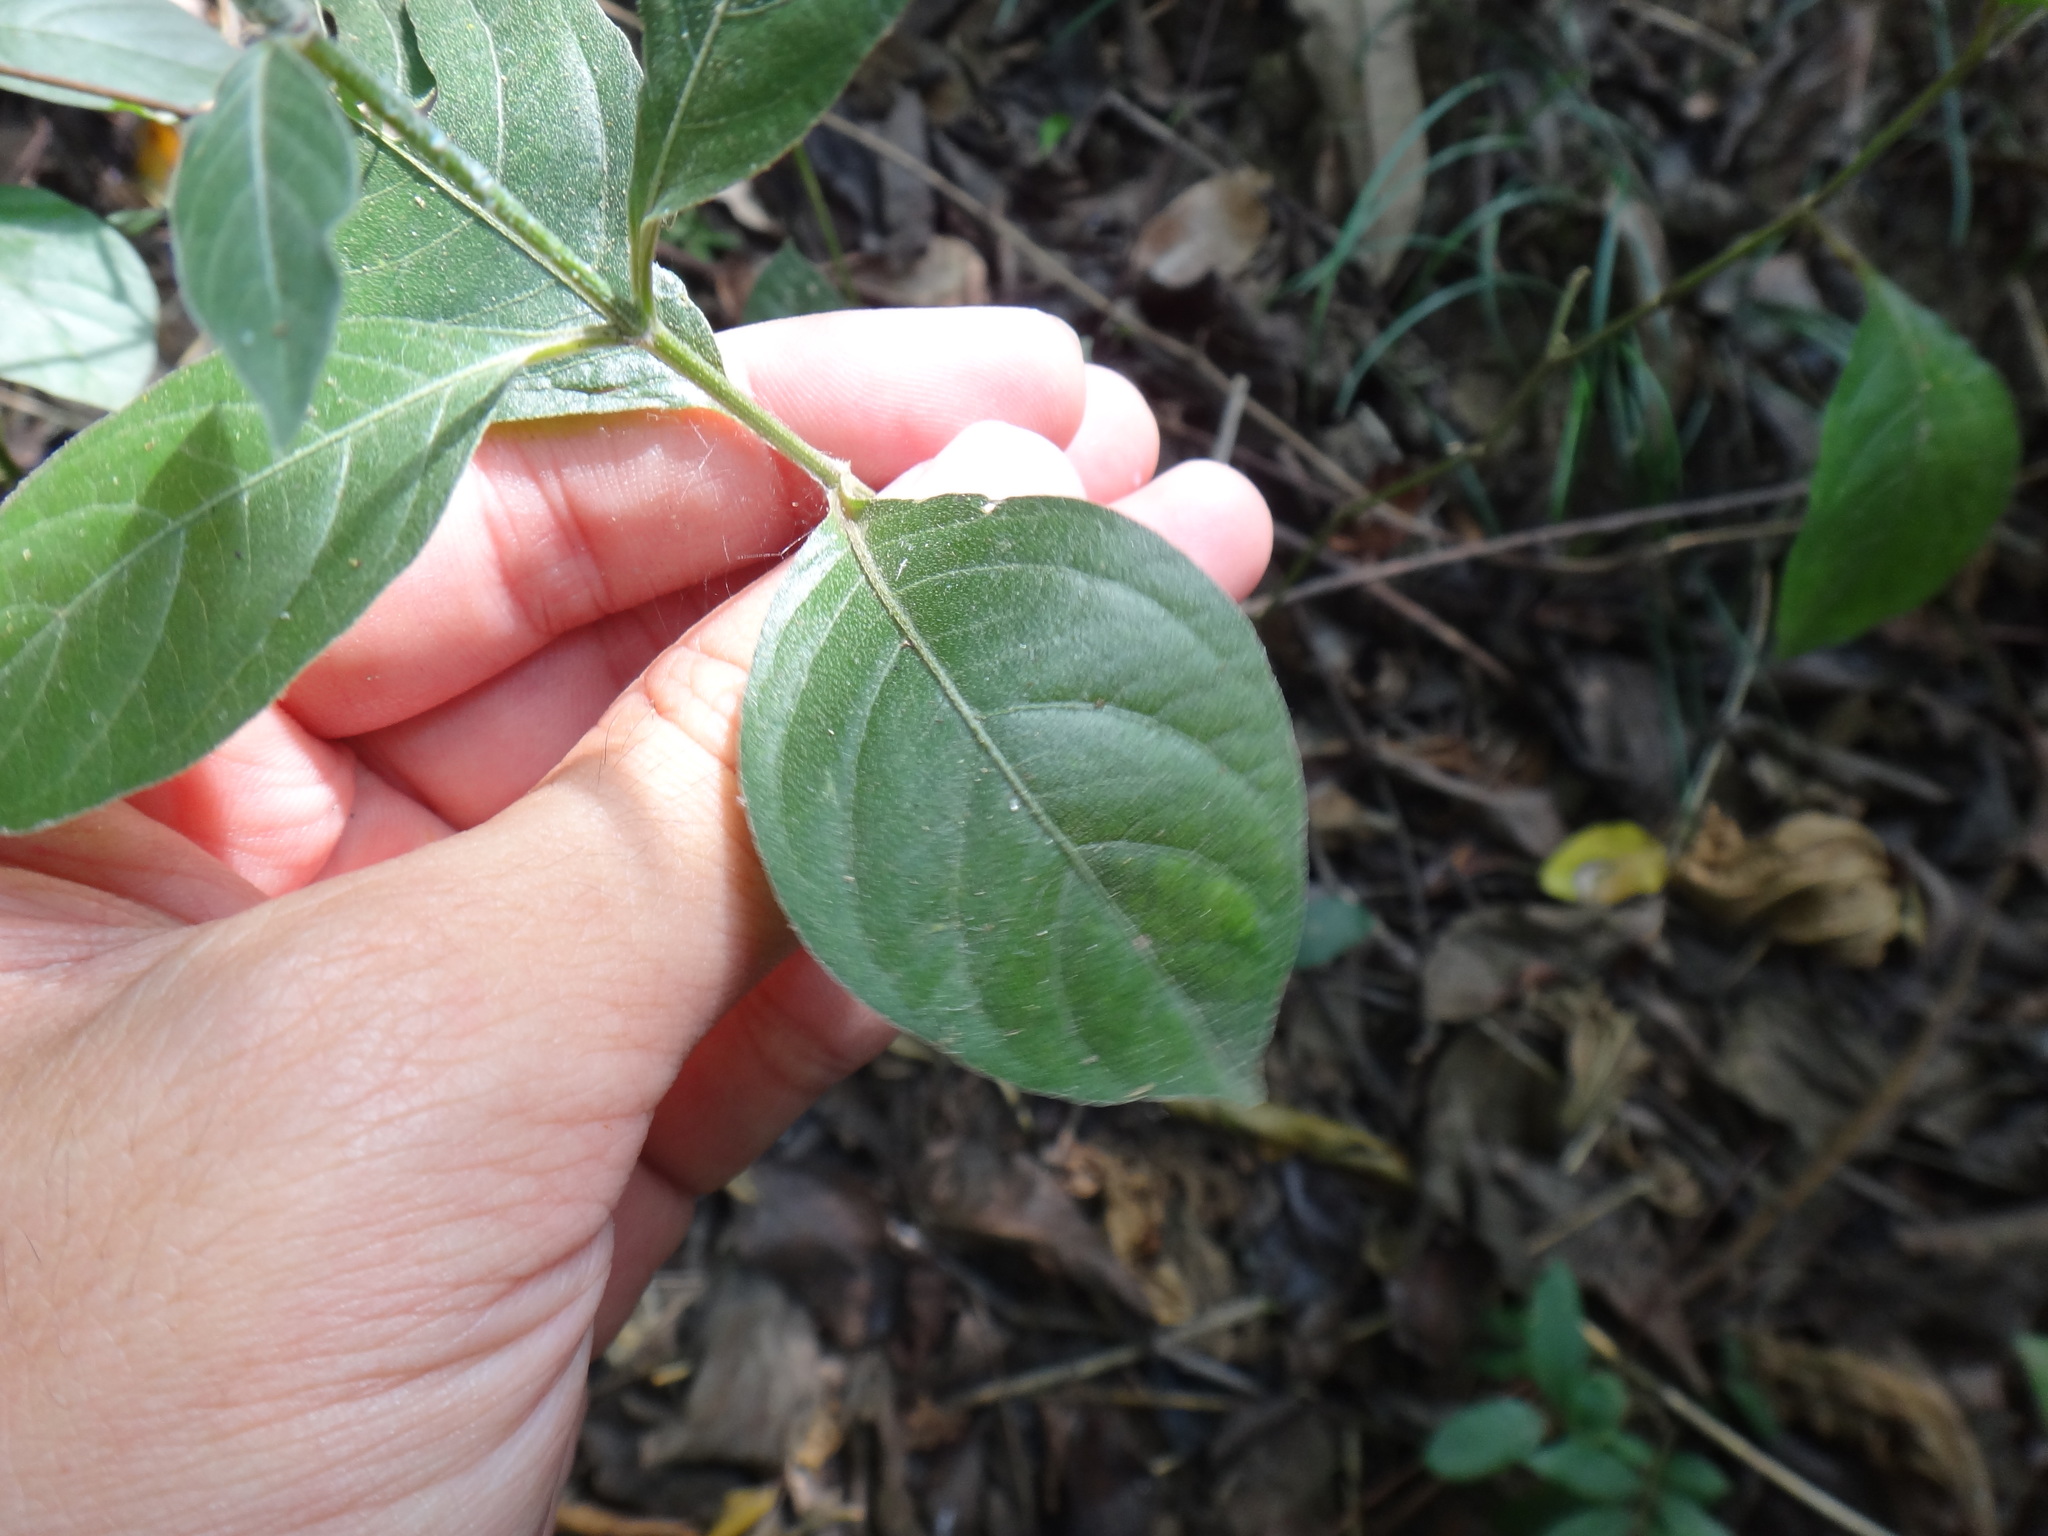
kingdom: Plantae
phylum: Tracheophyta
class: Magnoliopsida
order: Caryophyllales
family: Amaranthaceae
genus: Achyranthes
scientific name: Achyranthes bidentata
